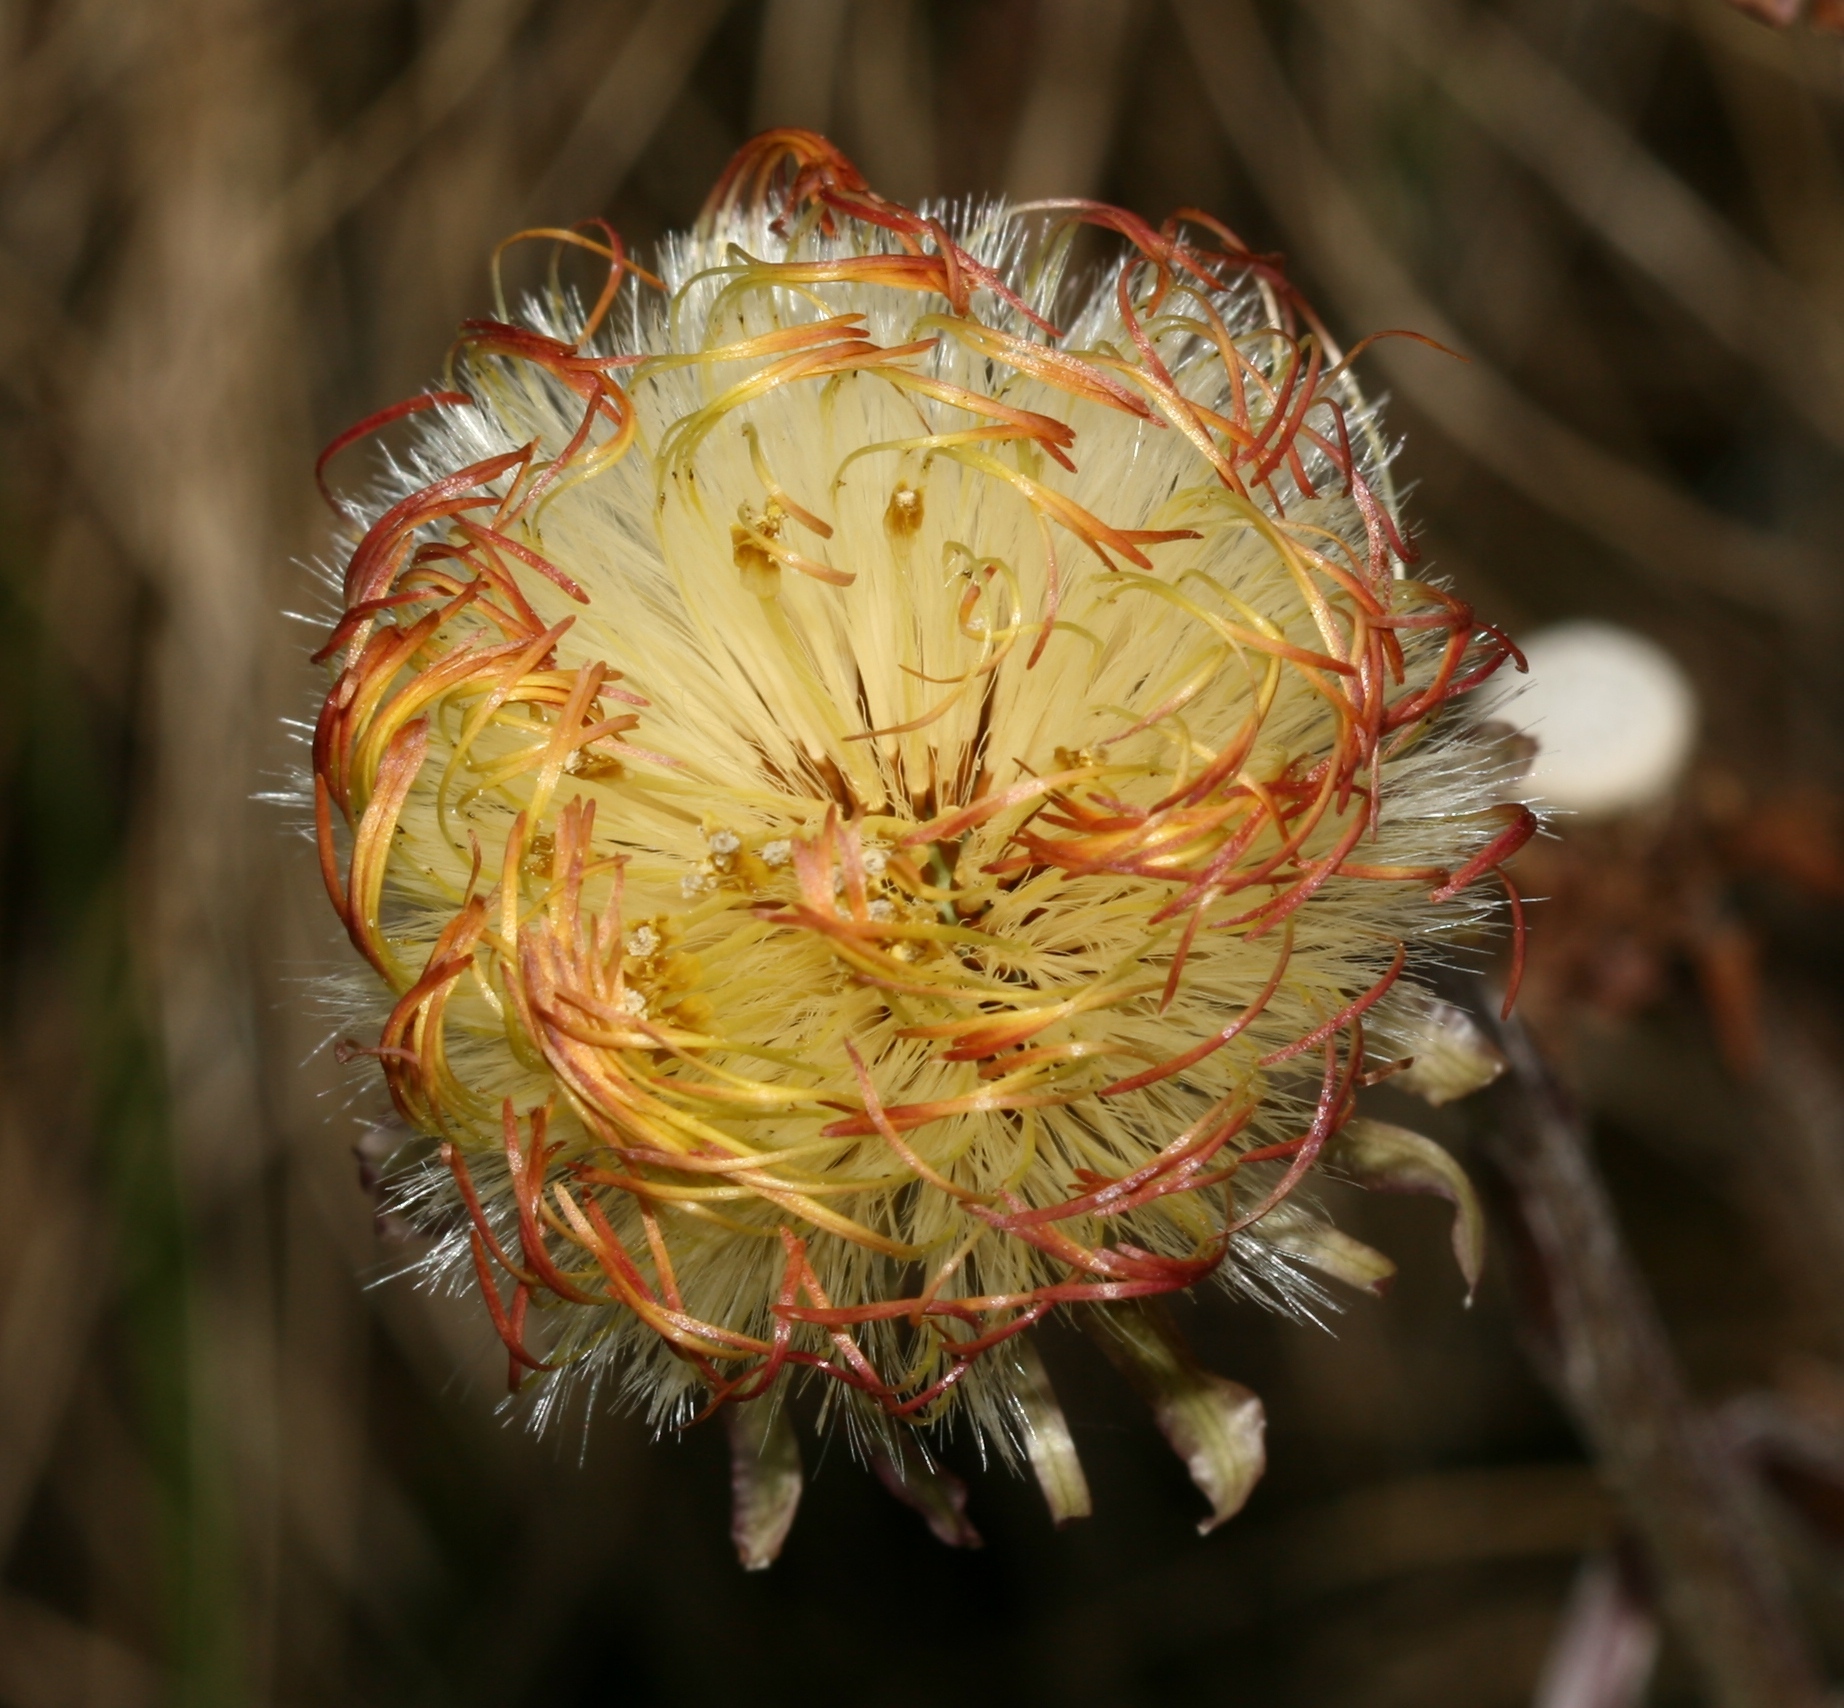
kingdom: Plantae
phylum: Tracheophyta
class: Magnoliopsida
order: Asterales
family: Asteraceae
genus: Tussilago
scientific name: Tussilago farfara
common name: Coltsfoot
